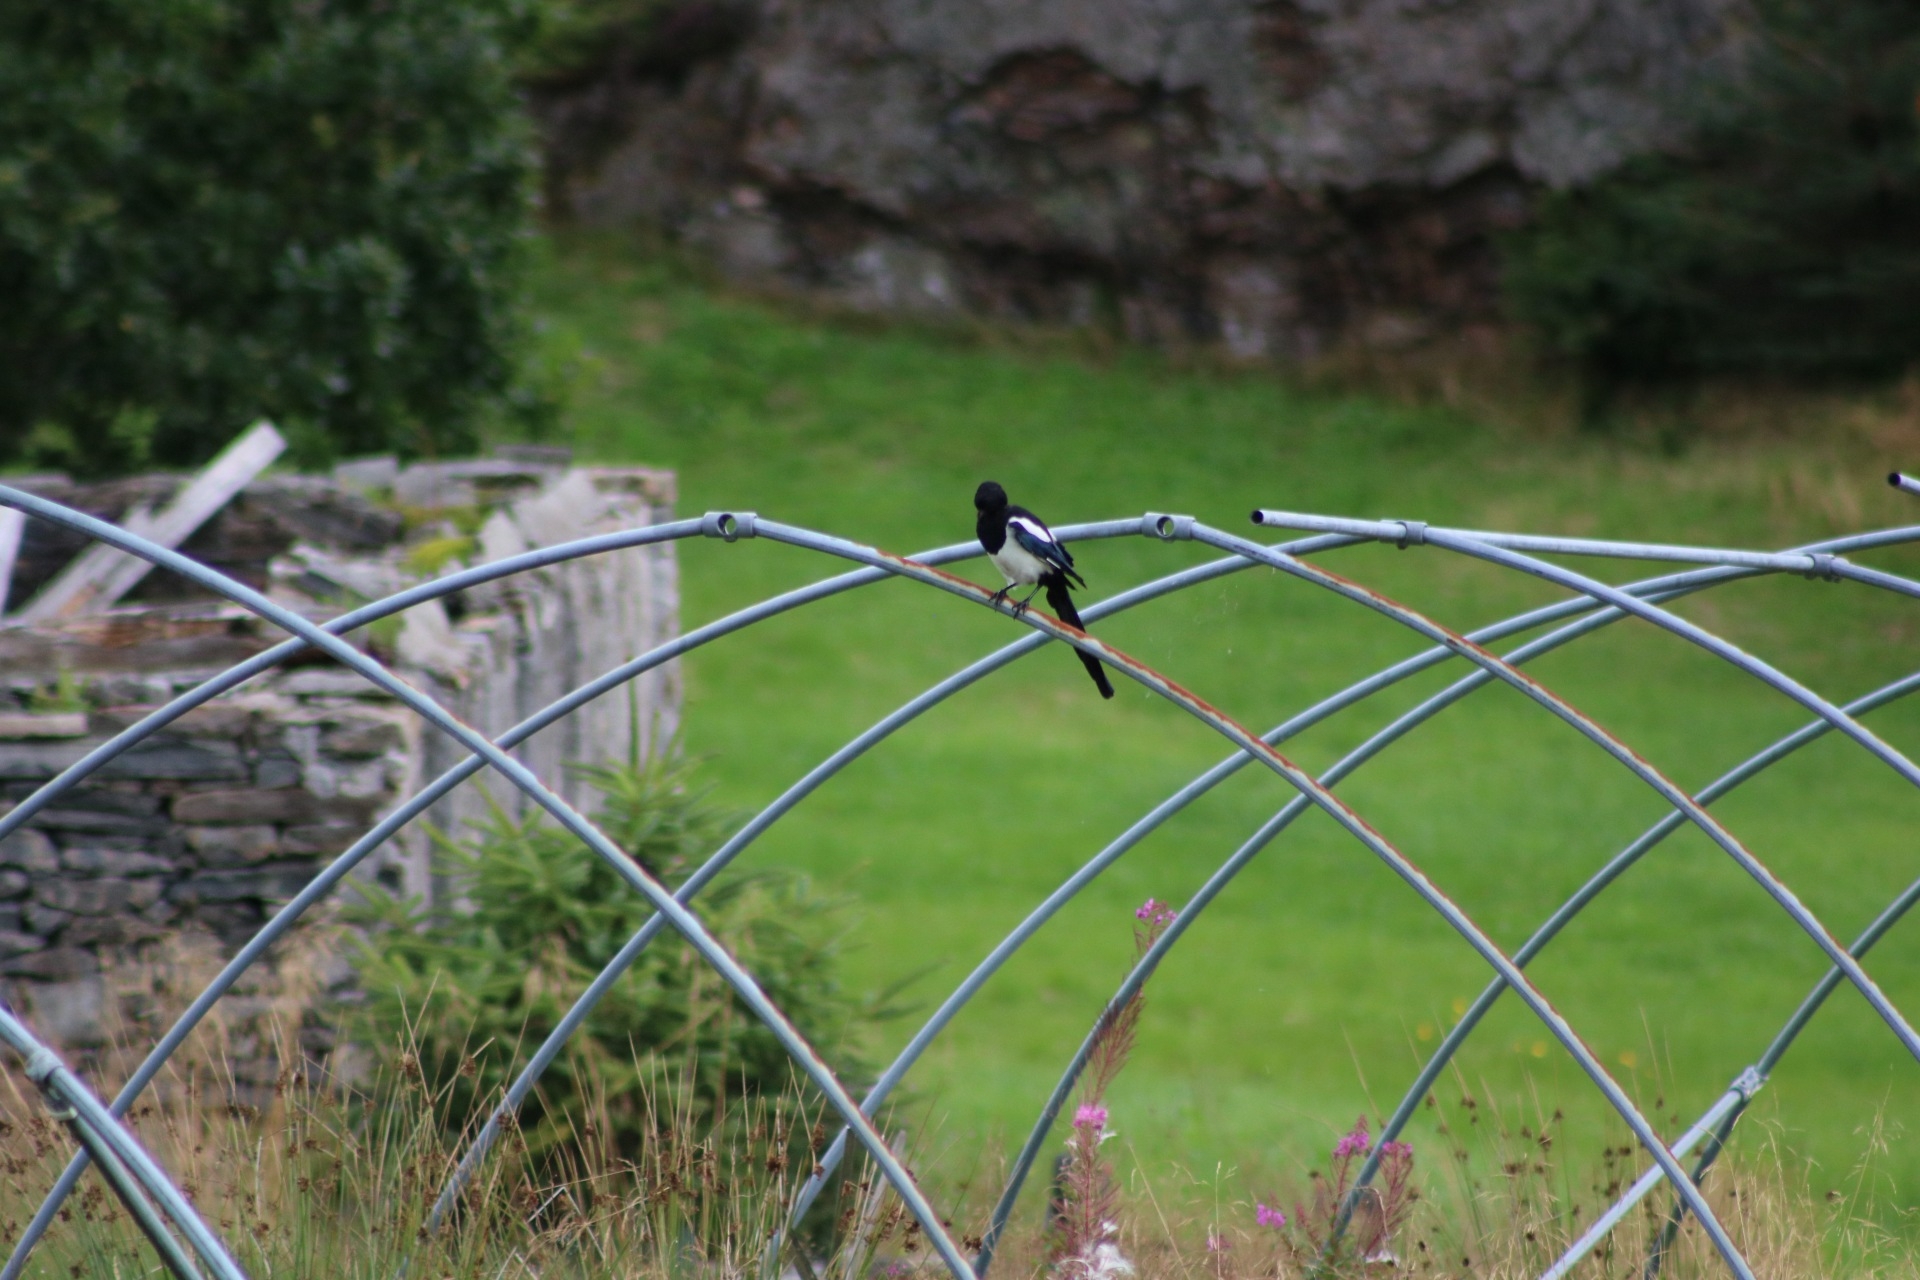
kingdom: Animalia
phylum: Chordata
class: Aves
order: Passeriformes
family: Corvidae
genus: Pica
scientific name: Pica pica
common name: Eurasian magpie
